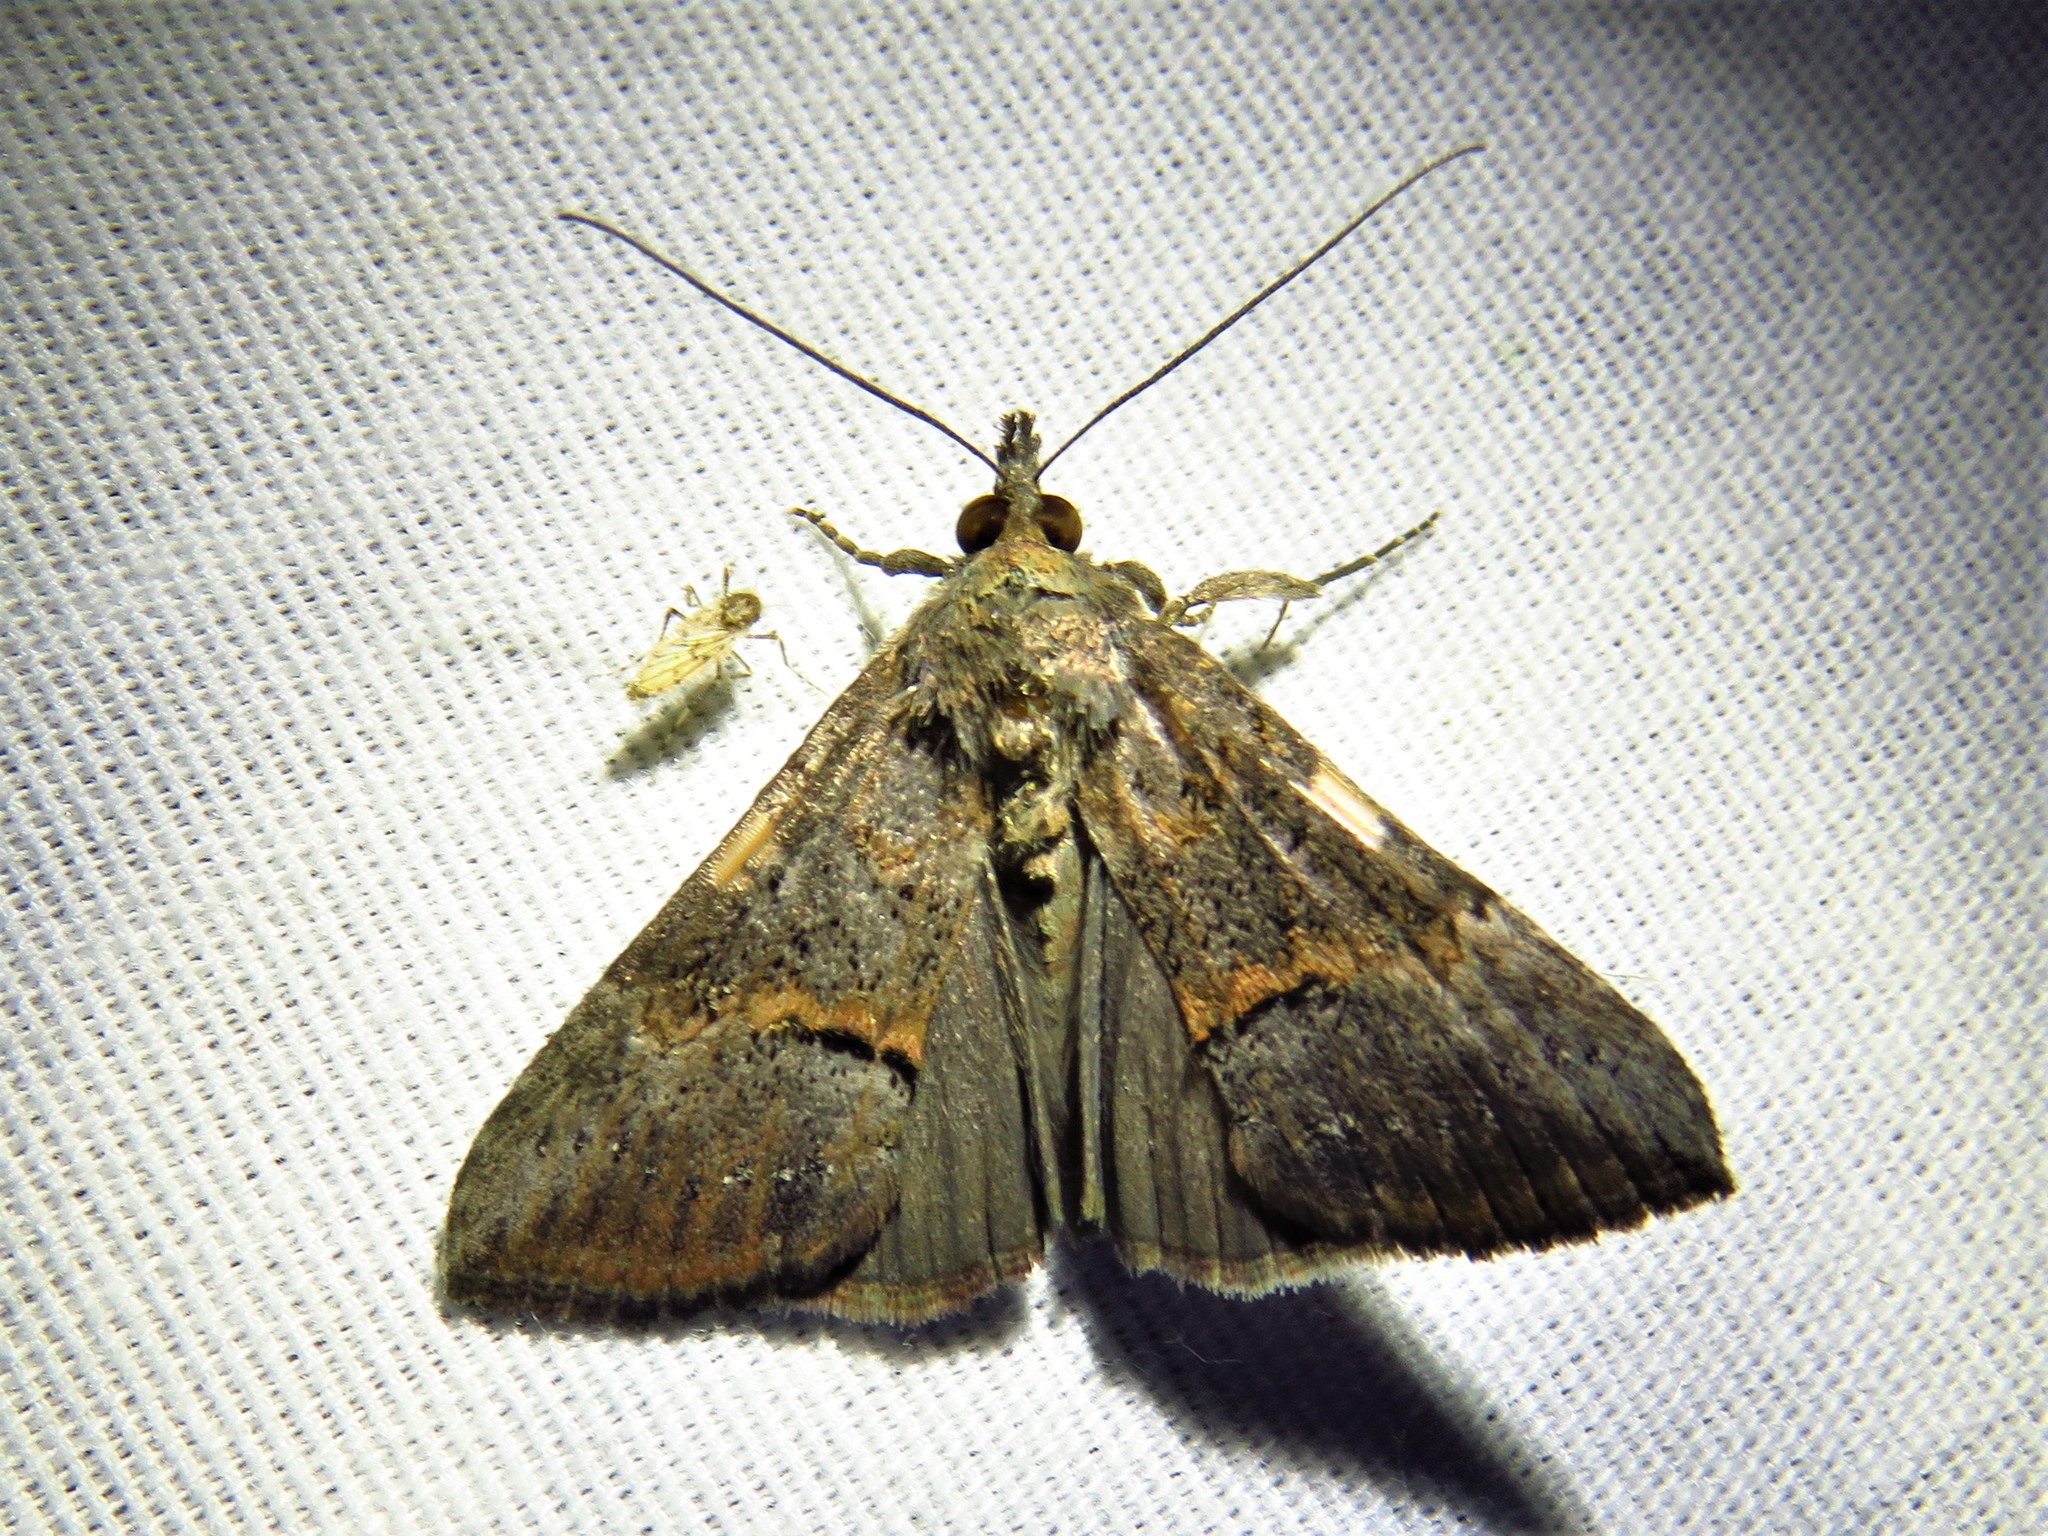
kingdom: Animalia
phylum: Arthropoda
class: Insecta
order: Lepidoptera
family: Erebidae
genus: Hypena
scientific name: Hypena scabra
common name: Green cloverworm
